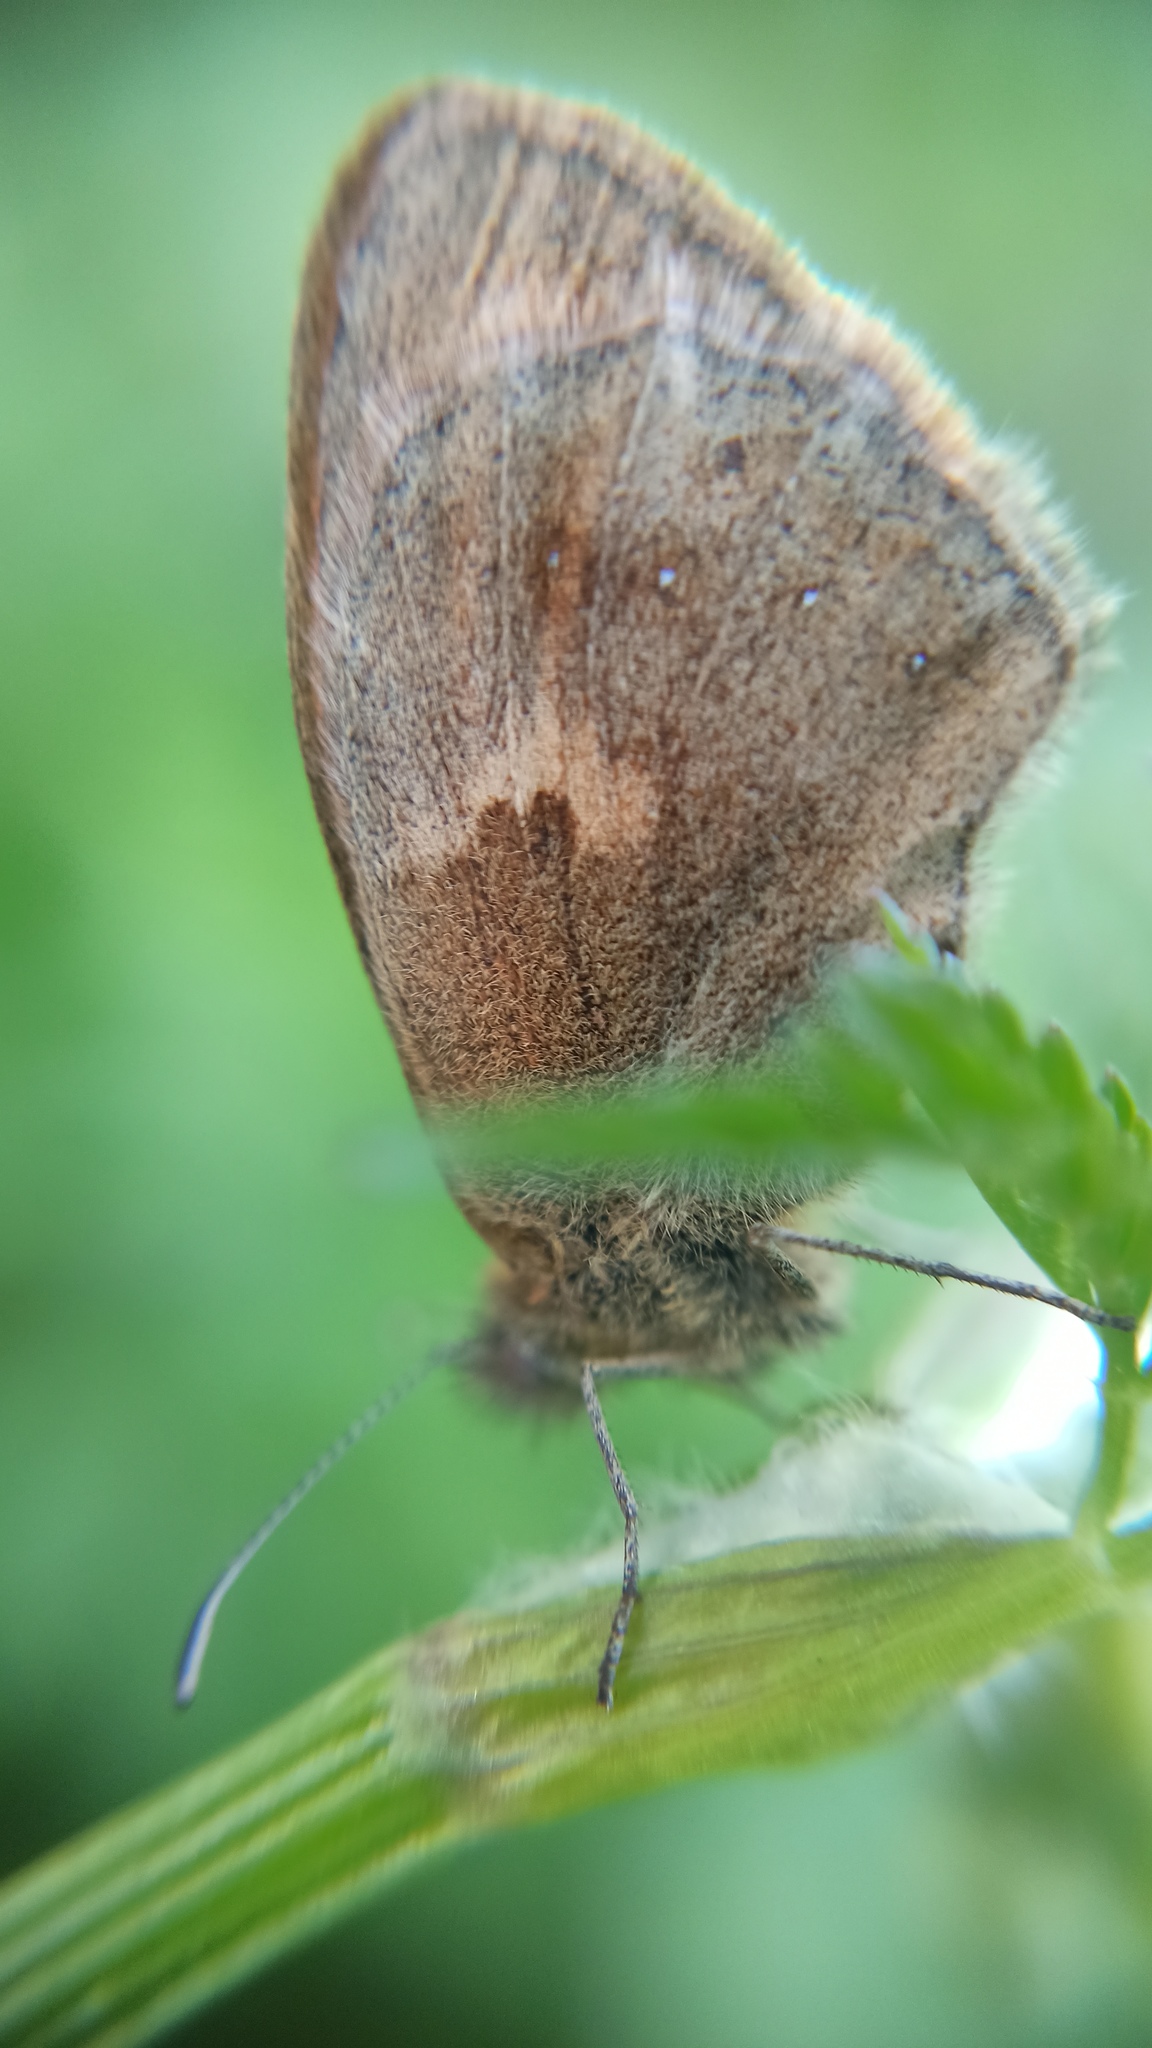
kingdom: Animalia
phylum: Arthropoda
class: Insecta
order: Lepidoptera
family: Nymphalidae
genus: Coenonympha
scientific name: Coenonympha pamphilus
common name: Small heath
